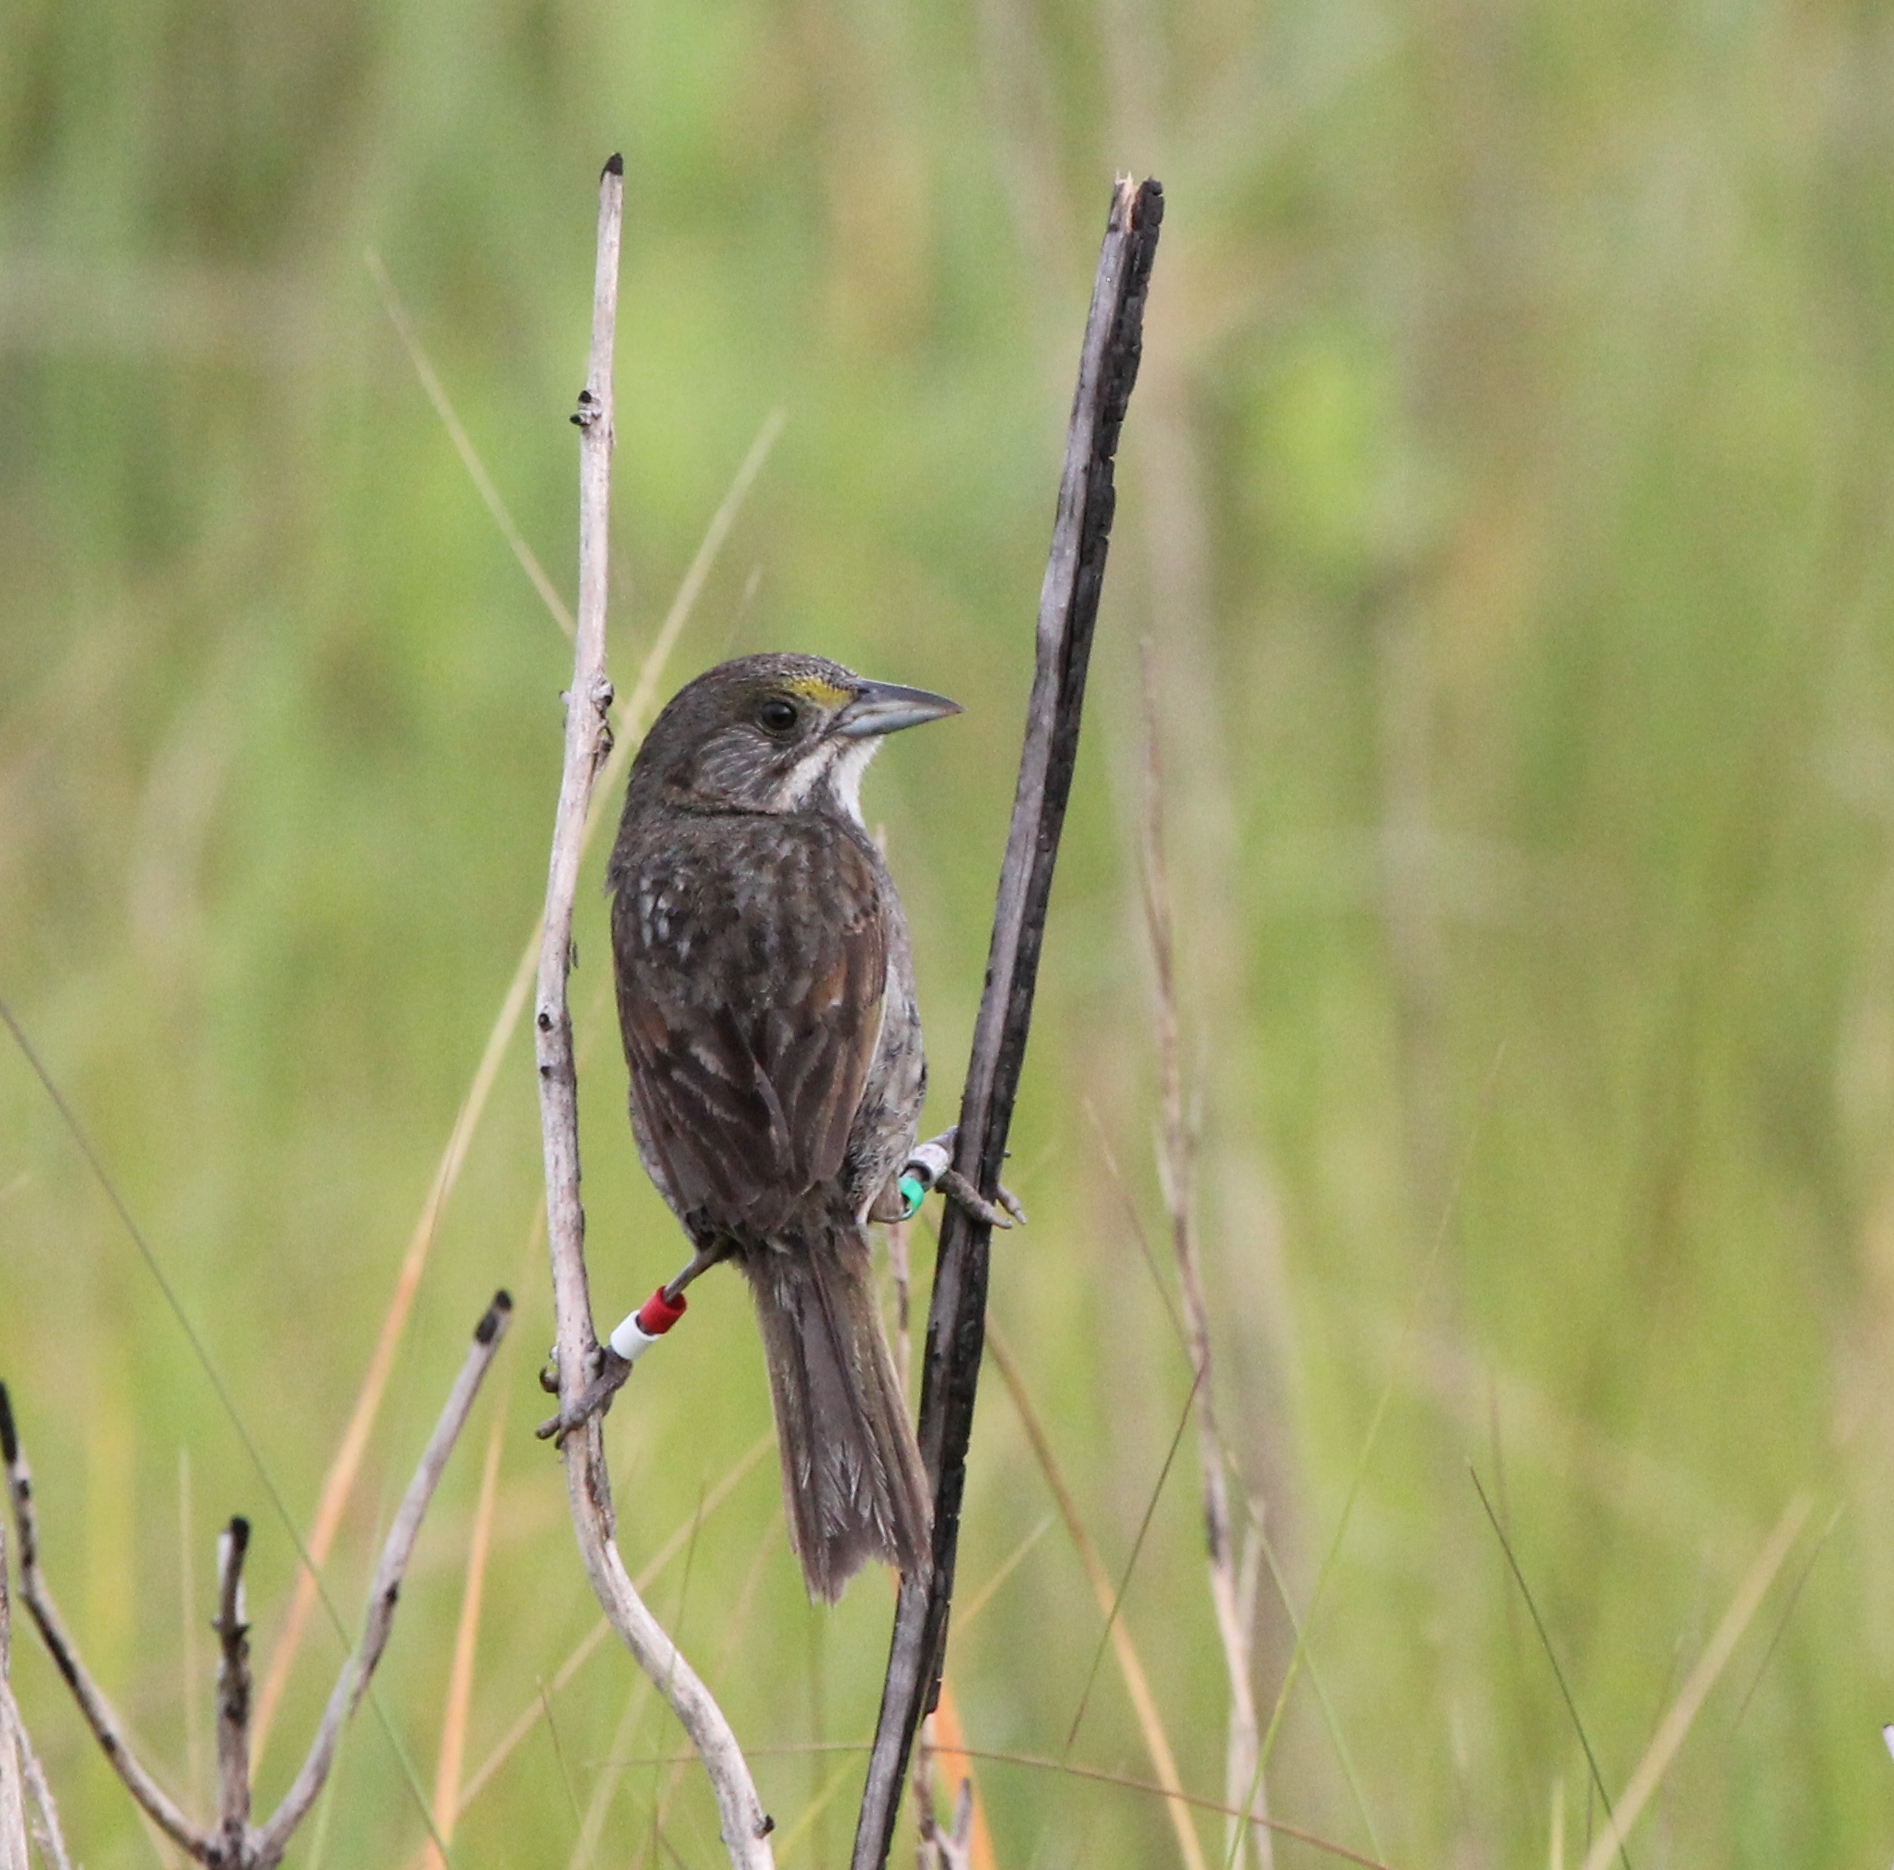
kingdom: Animalia
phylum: Chordata
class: Aves
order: Passeriformes
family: Passerellidae
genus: Ammospiza
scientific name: Ammospiza maritima
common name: Seaside sparrow
